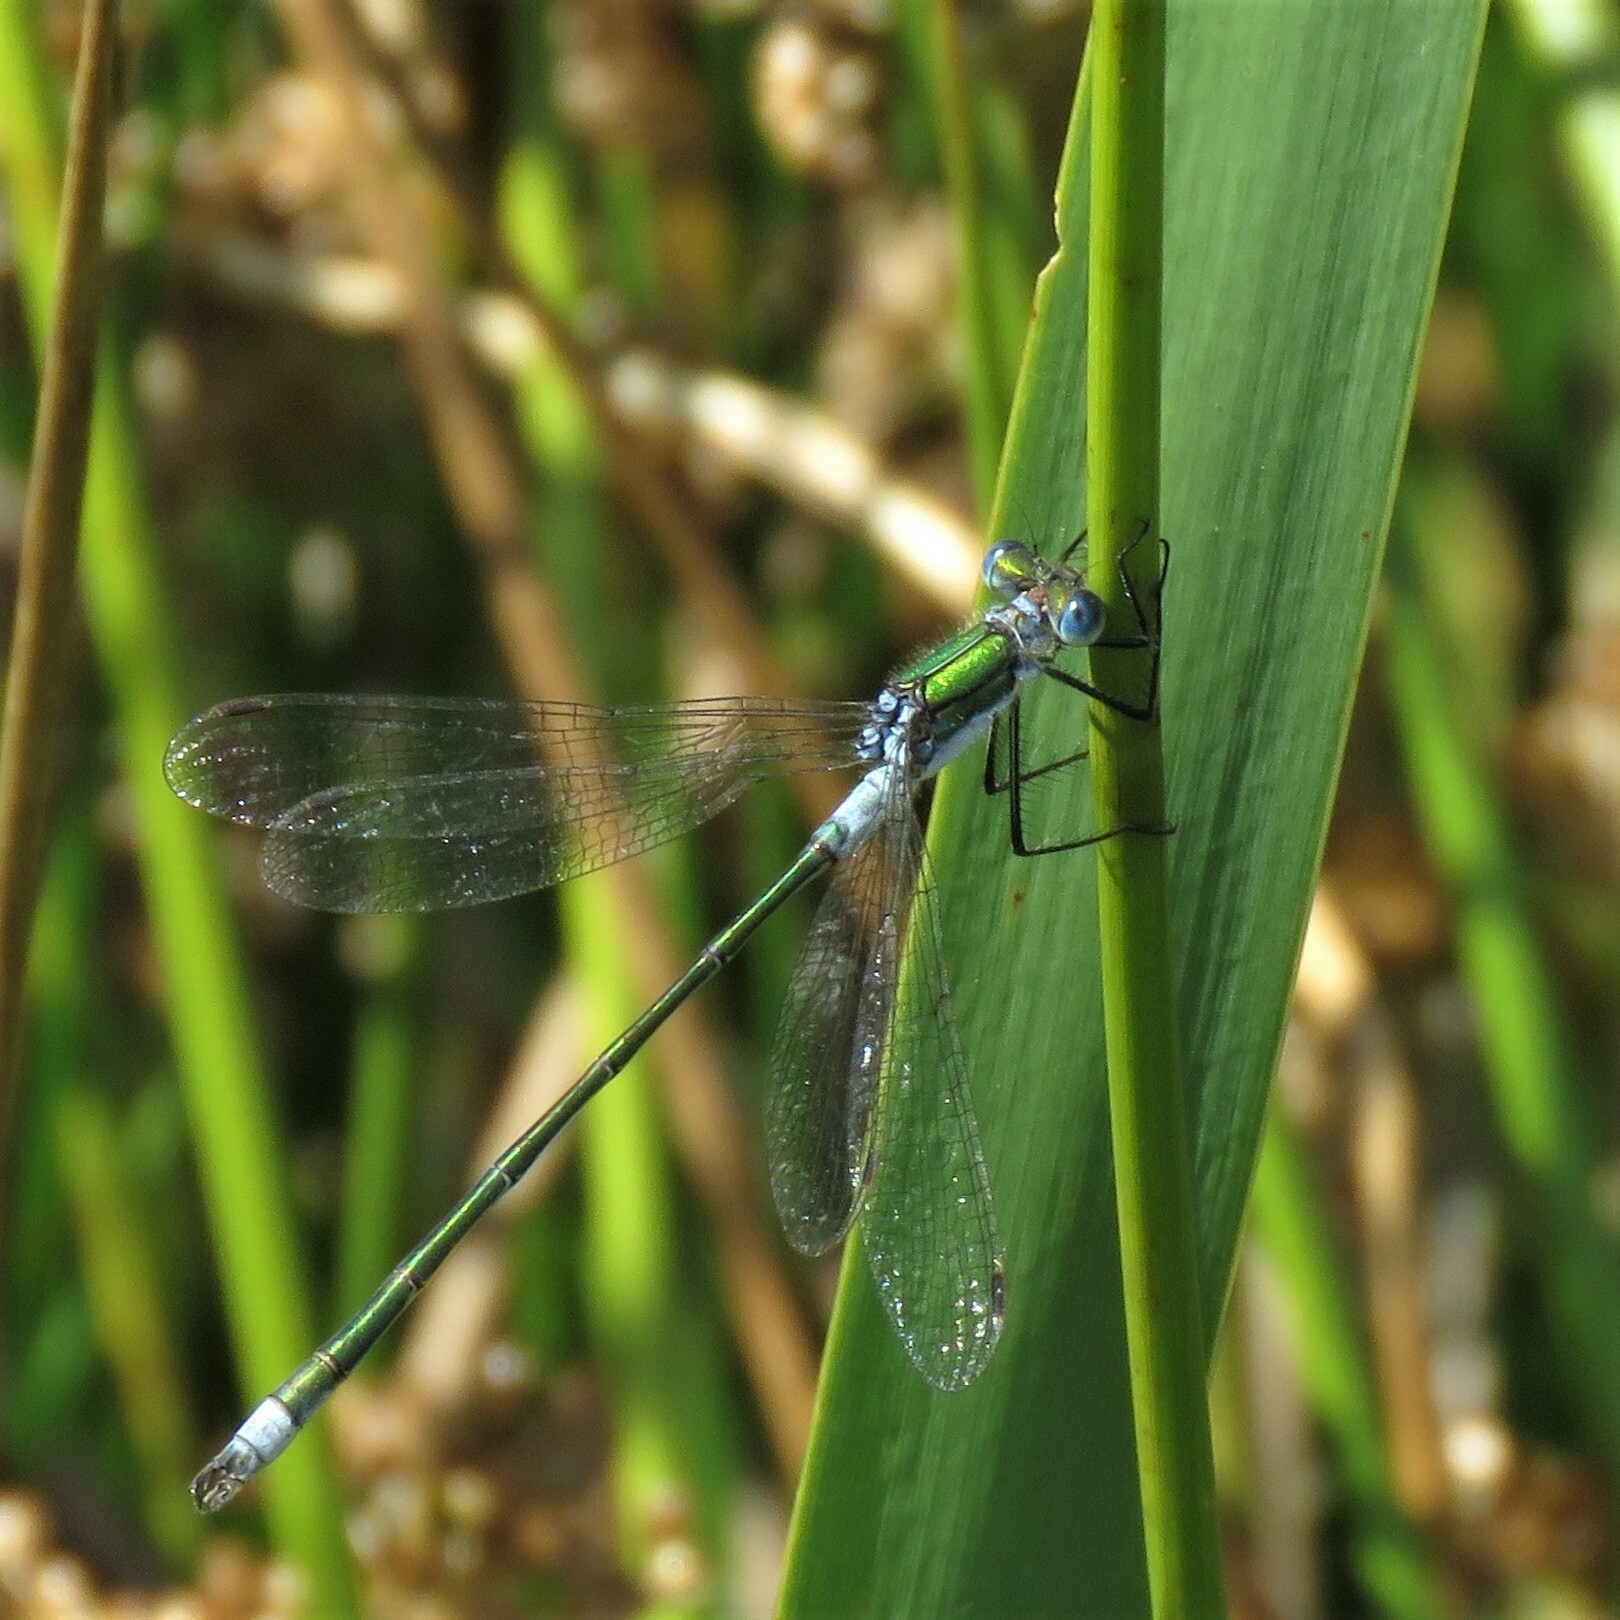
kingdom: Animalia
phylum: Arthropoda
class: Insecta
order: Odonata
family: Lestidae
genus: Lestes
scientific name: Lestes sponsa
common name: Common spreadwing
